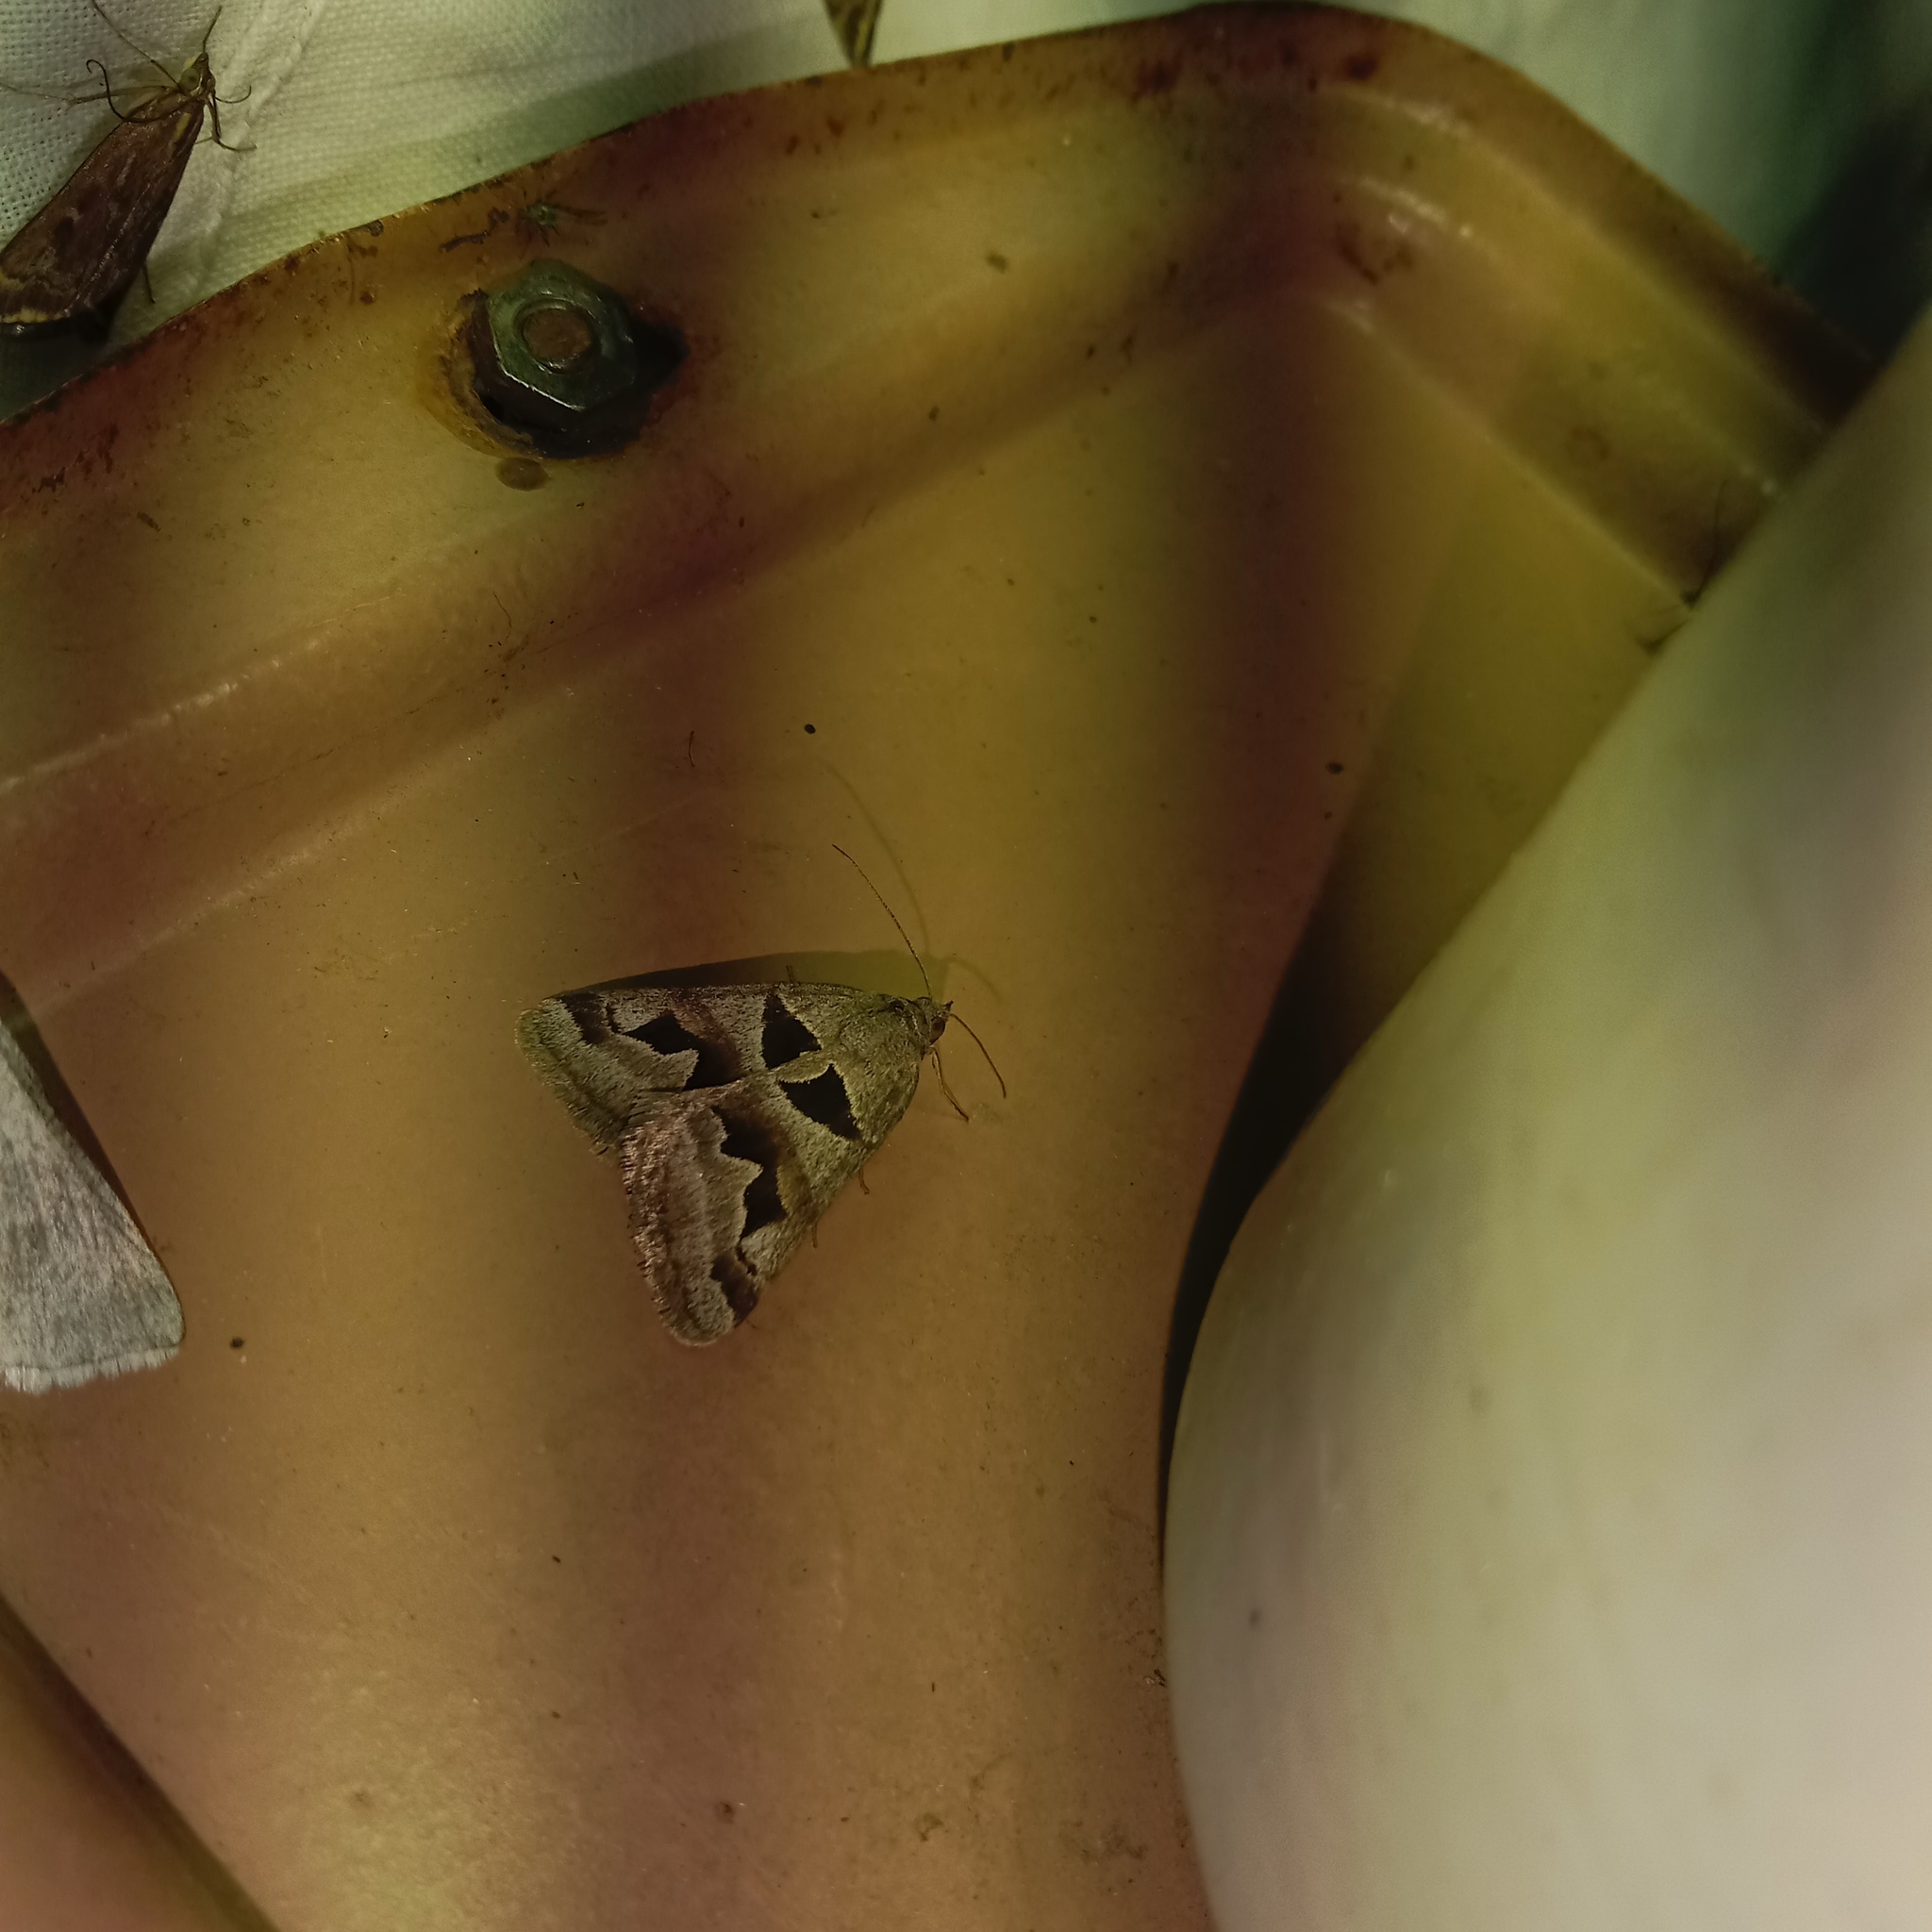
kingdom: Animalia
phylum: Arthropoda
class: Insecta
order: Lepidoptera
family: Erebidae
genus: Euclidia
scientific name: Euclidia triquetra
